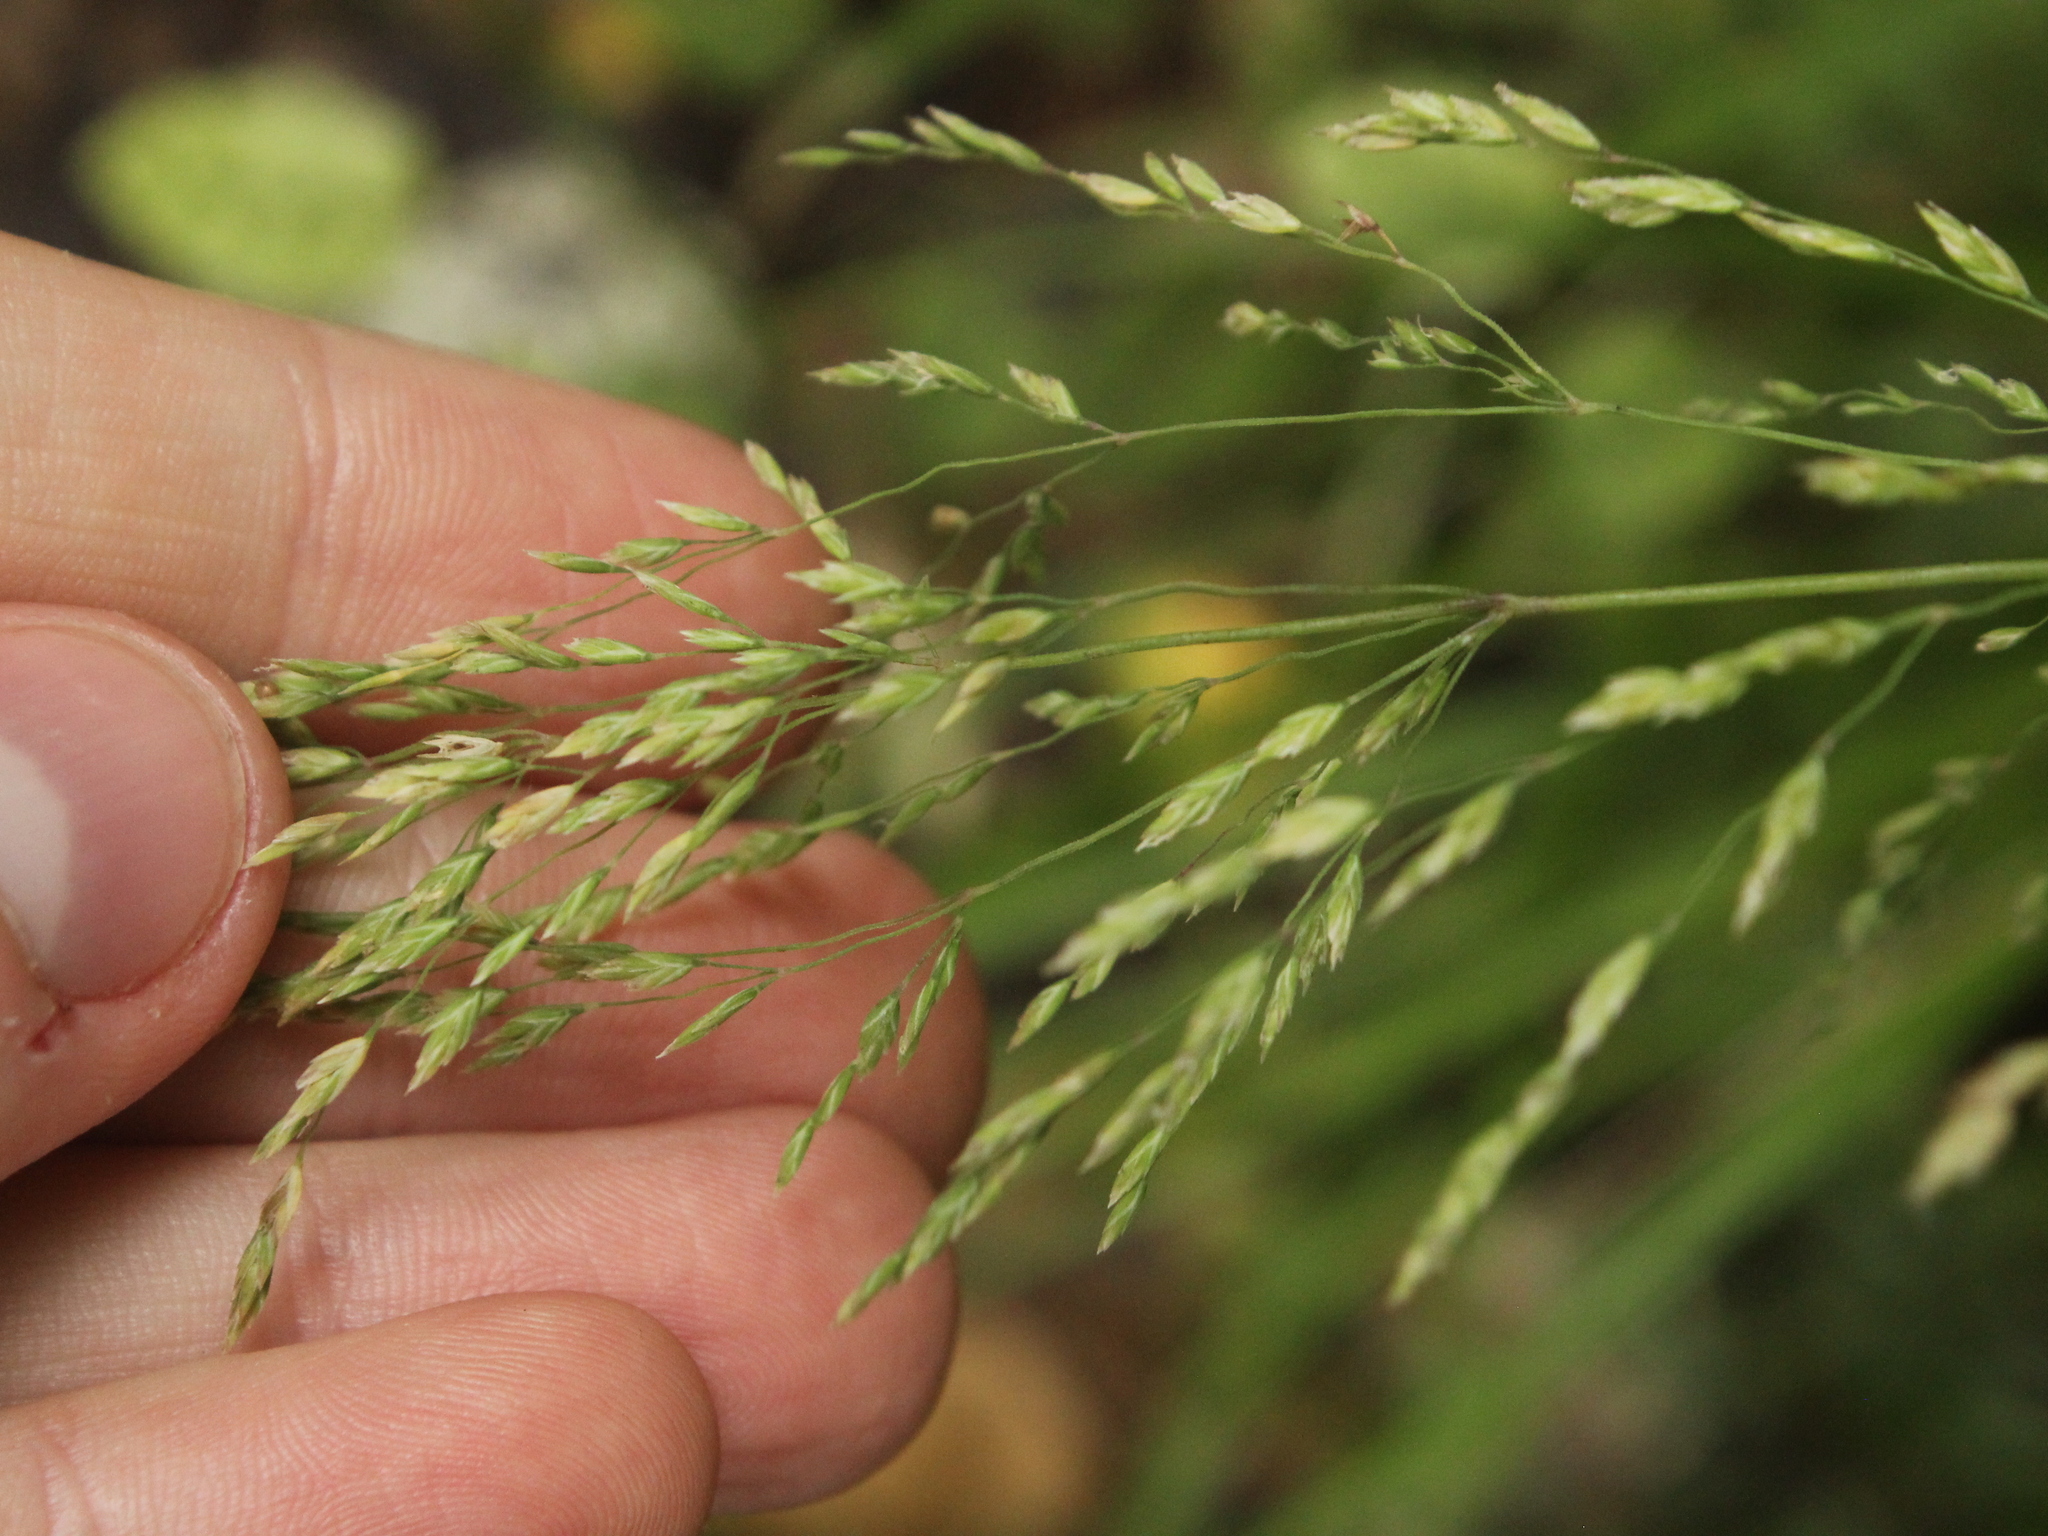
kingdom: Plantae
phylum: Tracheophyta
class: Liliopsida
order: Poales
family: Poaceae
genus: Poa
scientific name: Poa anceps
